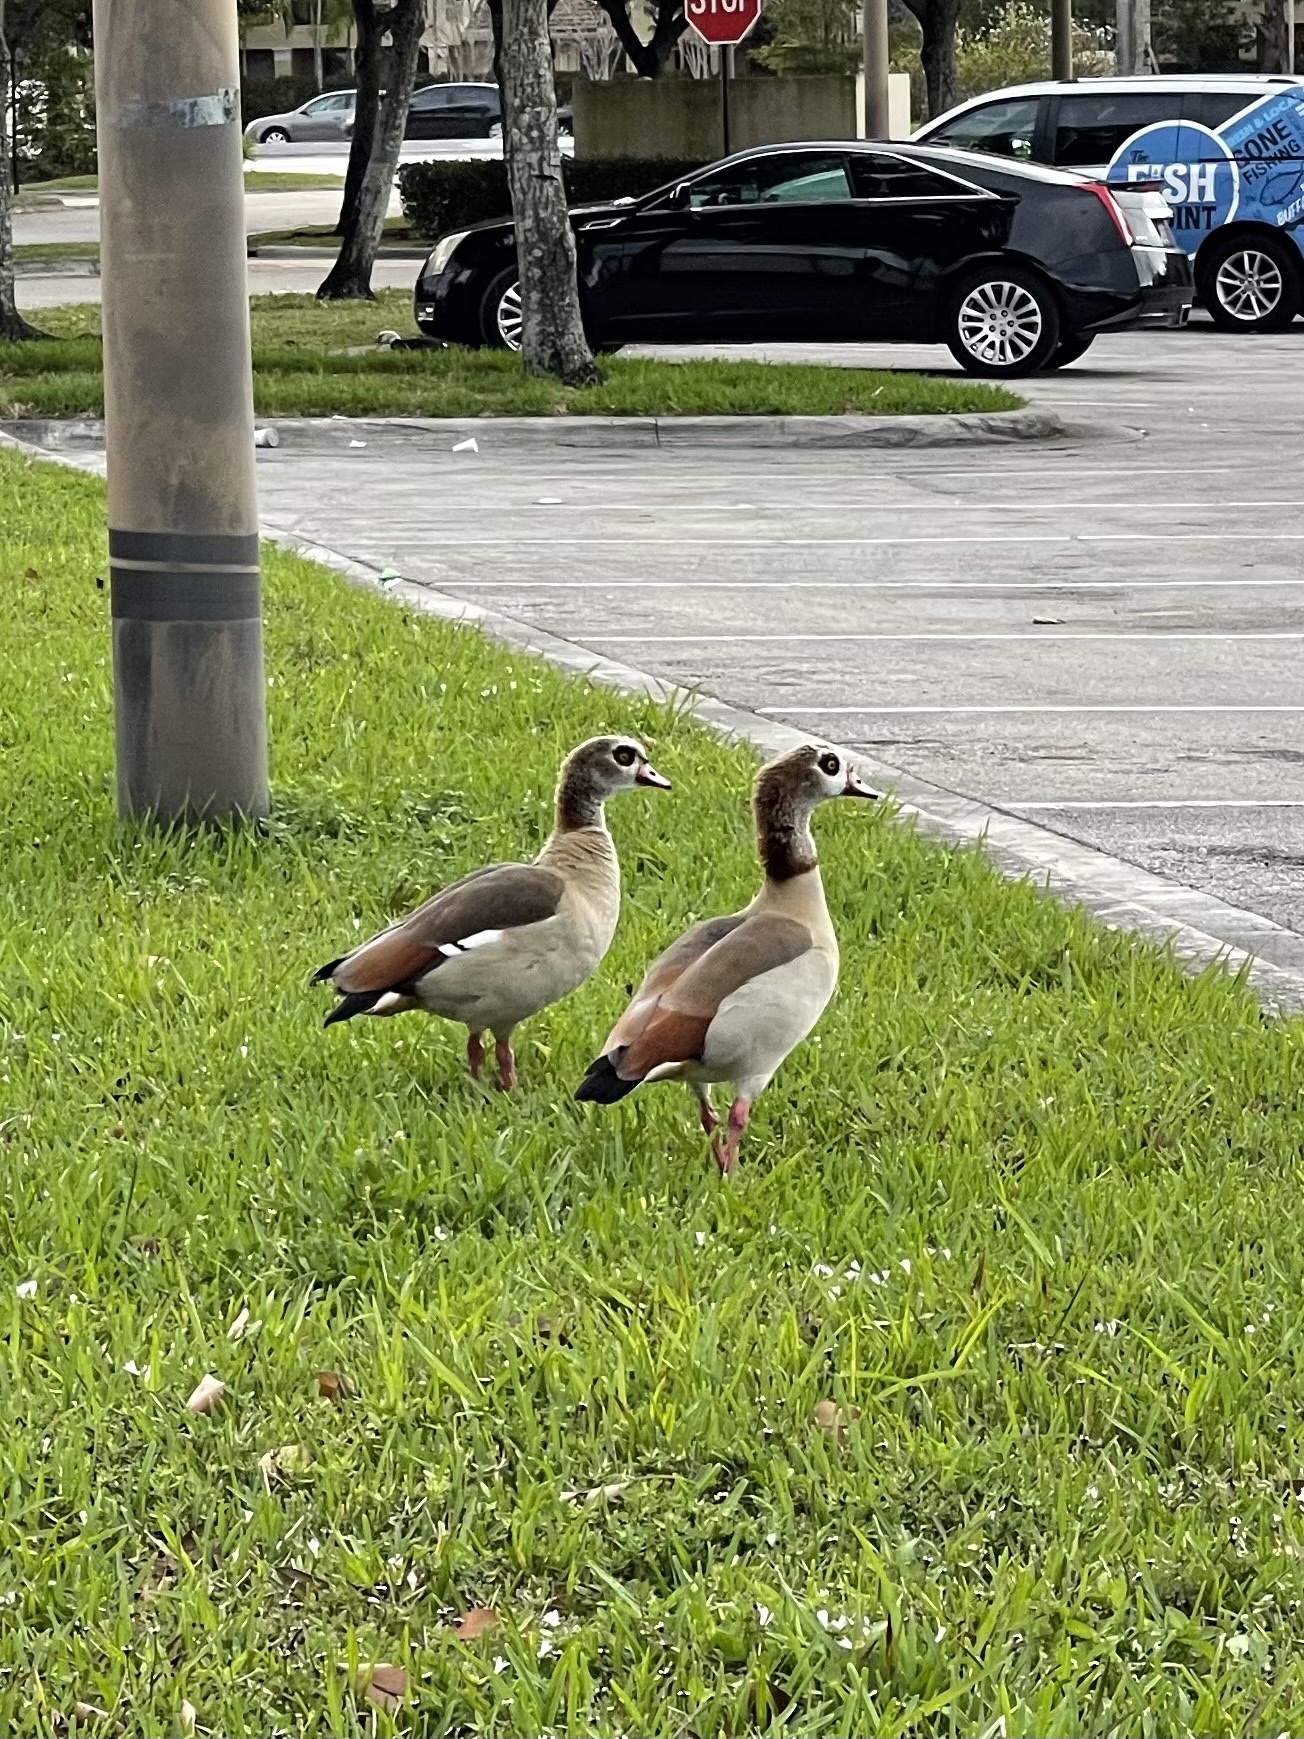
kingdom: Animalia
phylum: Chordata
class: Aves
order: Anseriformes
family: Anatidae
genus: Alopochen
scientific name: Alopochen aegyptiaca
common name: Egyptian goose
